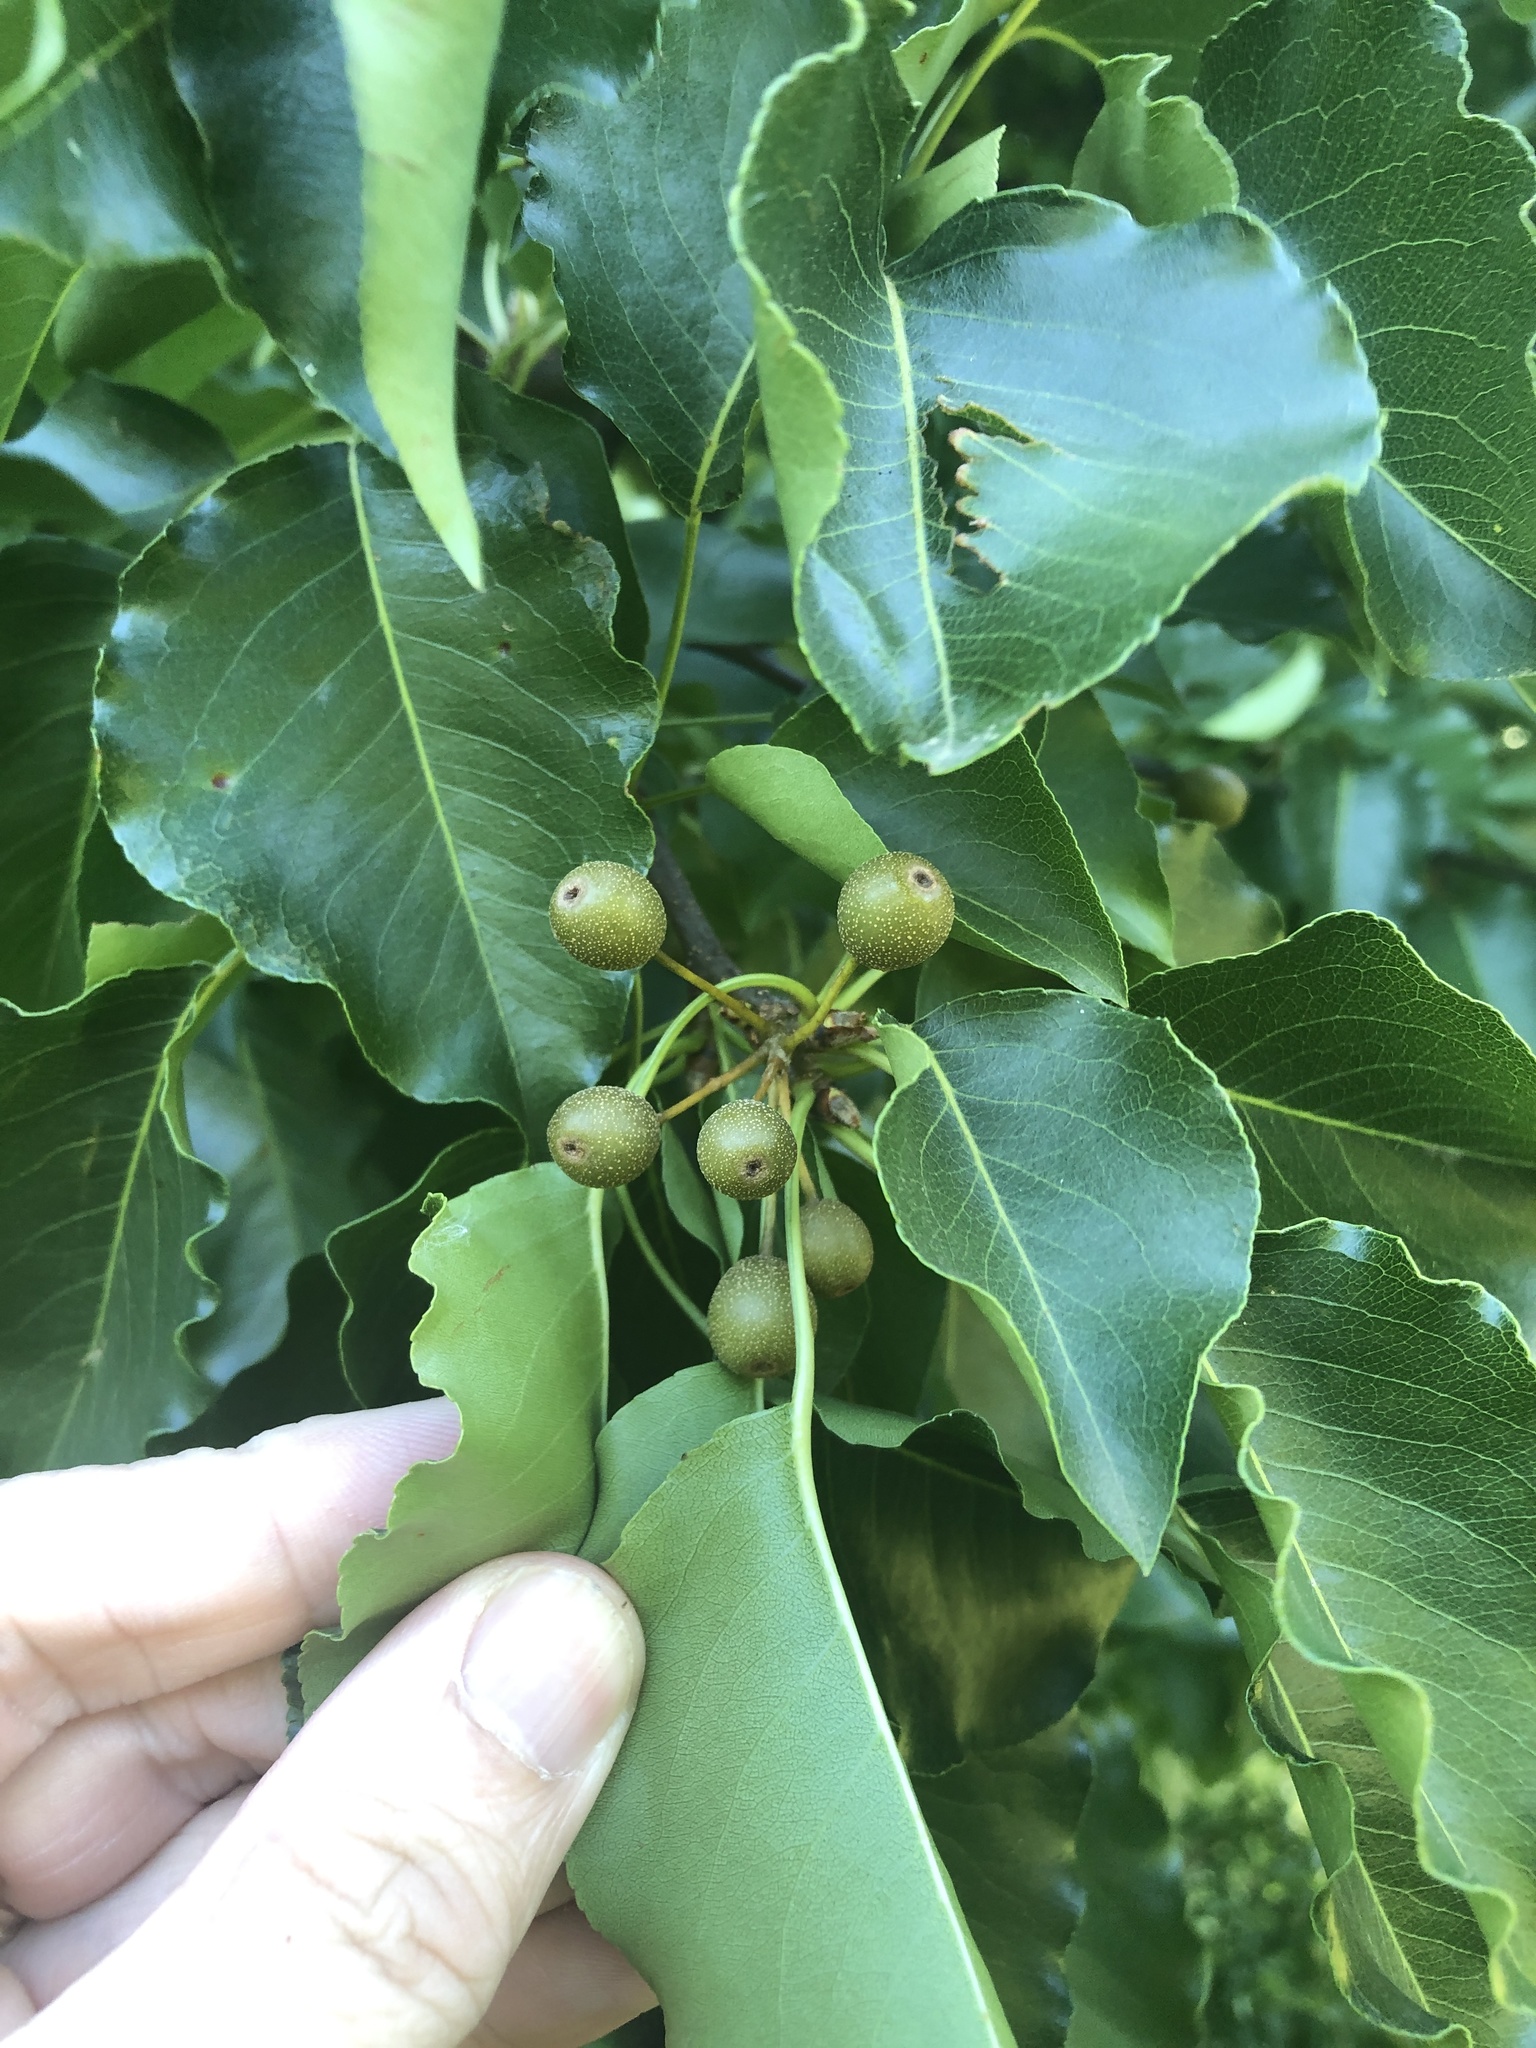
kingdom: Plantae
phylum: Tracheophyta
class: Magnoliopsida
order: Rosales
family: Rosaceae
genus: Pyrus
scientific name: Pyrus calleryana
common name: Callery pear
